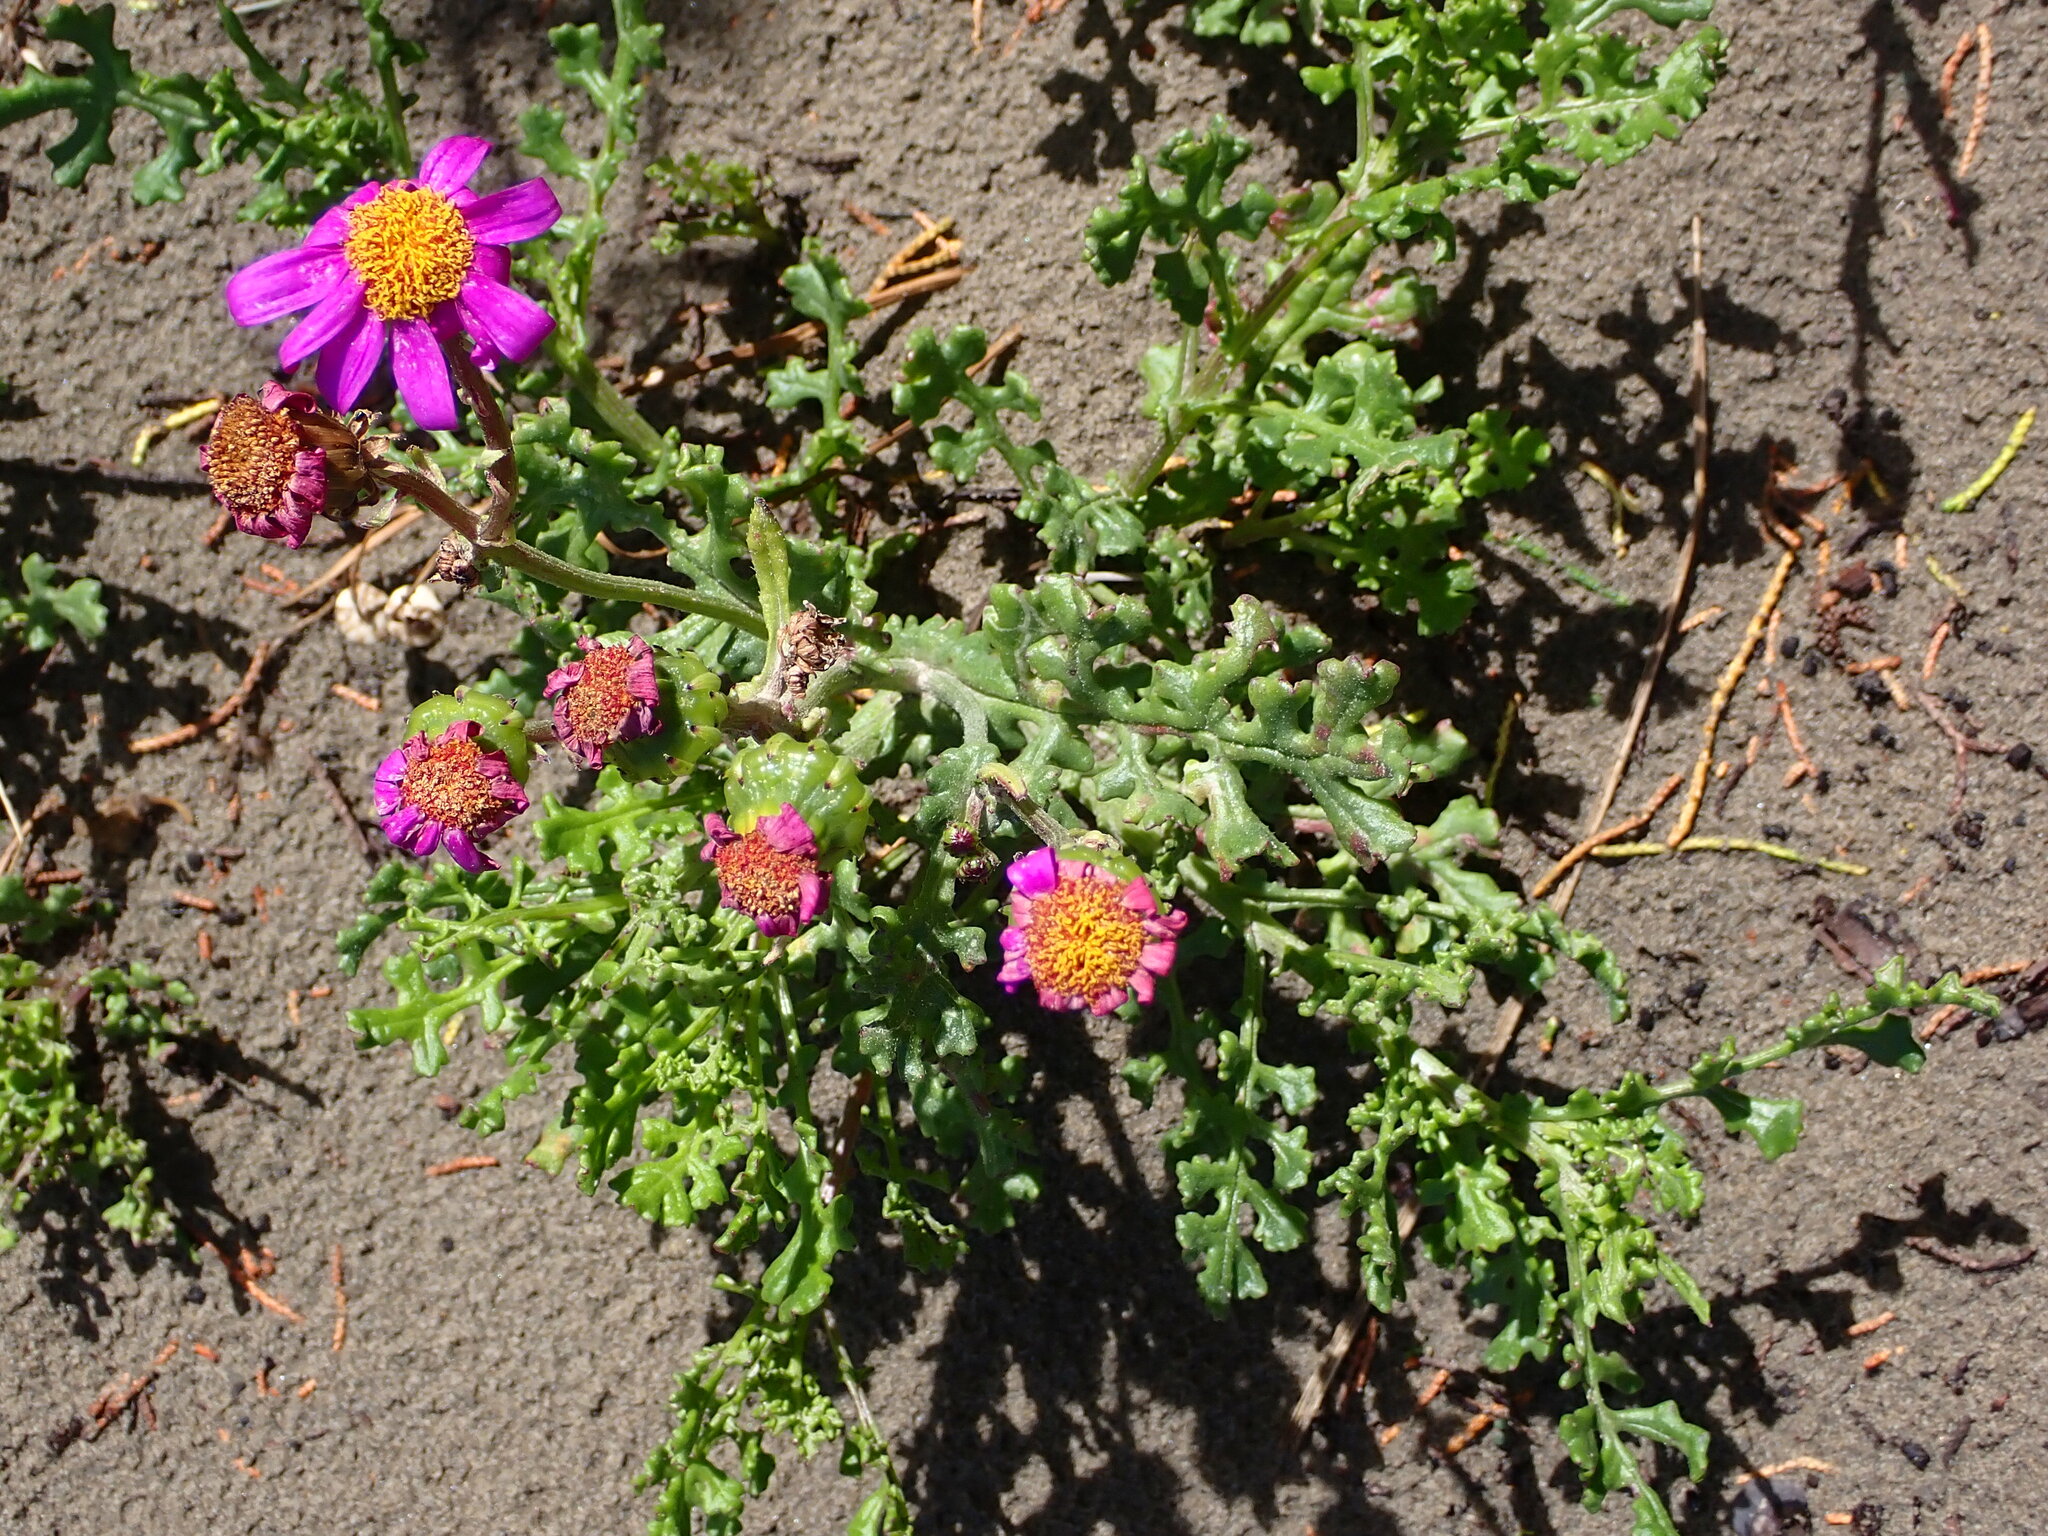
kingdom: Plantae
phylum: Tracheophyta
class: Magnoliopsida
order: Asterales
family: Asteraceae
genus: Senecio
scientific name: Senecio elegans
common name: Purple groundsel
